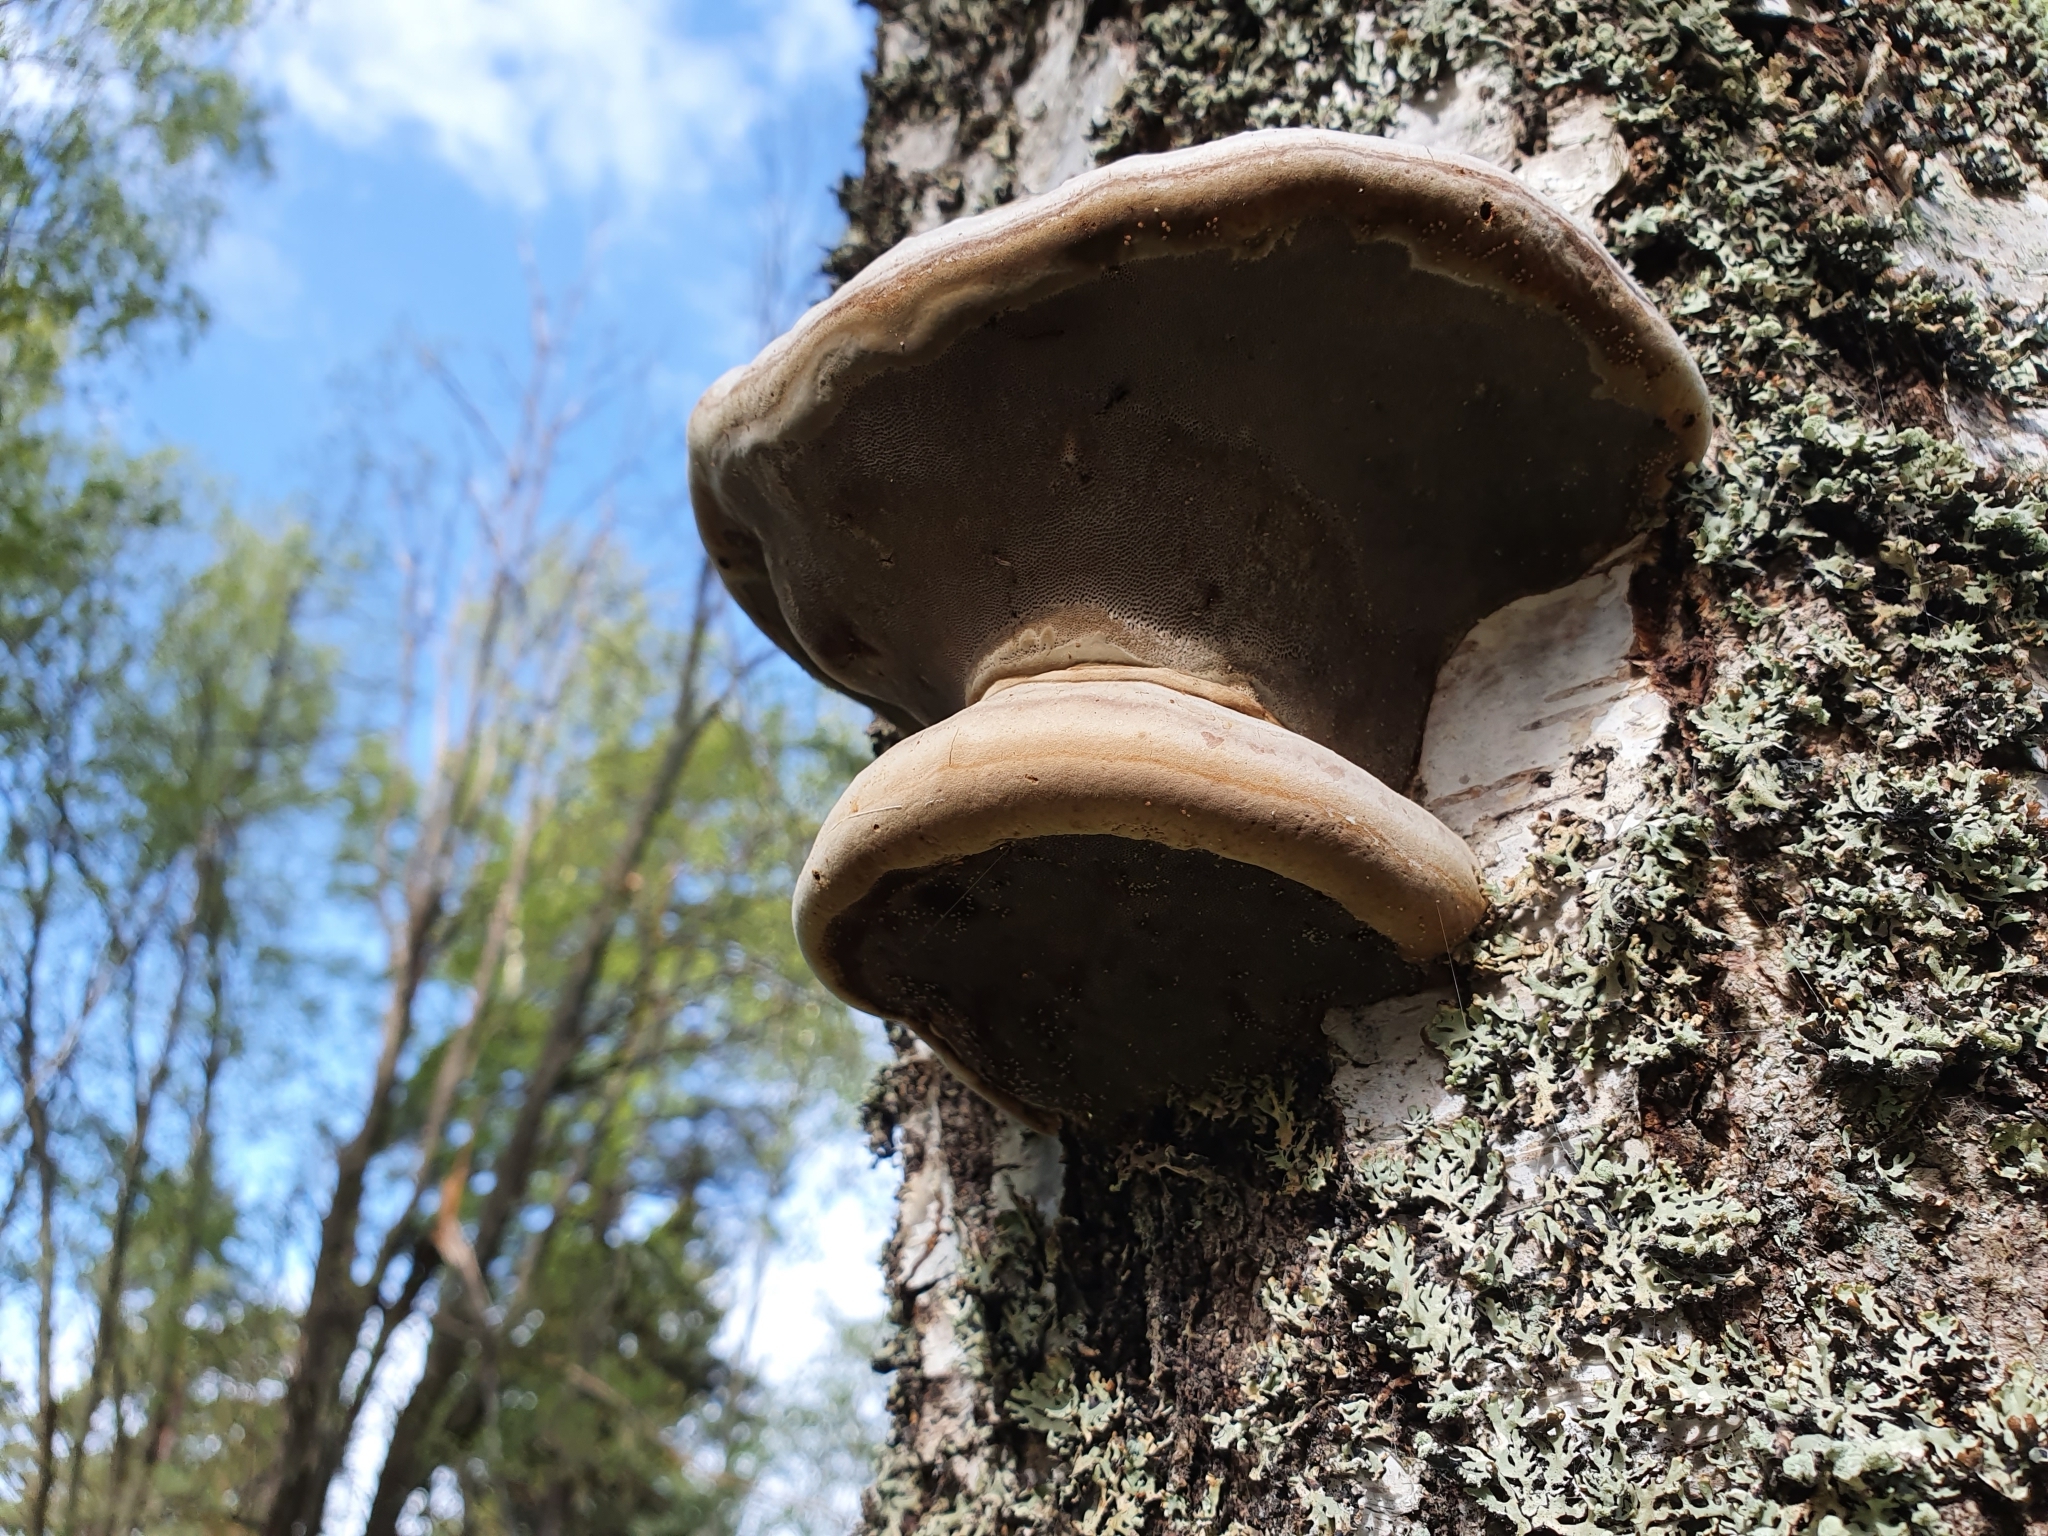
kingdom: Fungi
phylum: Basidiomycota
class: Agaricomycetes
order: Polyporales
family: Polyporaceae
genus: Fomes
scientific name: Fomes fomentarius
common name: Hoof fungus
